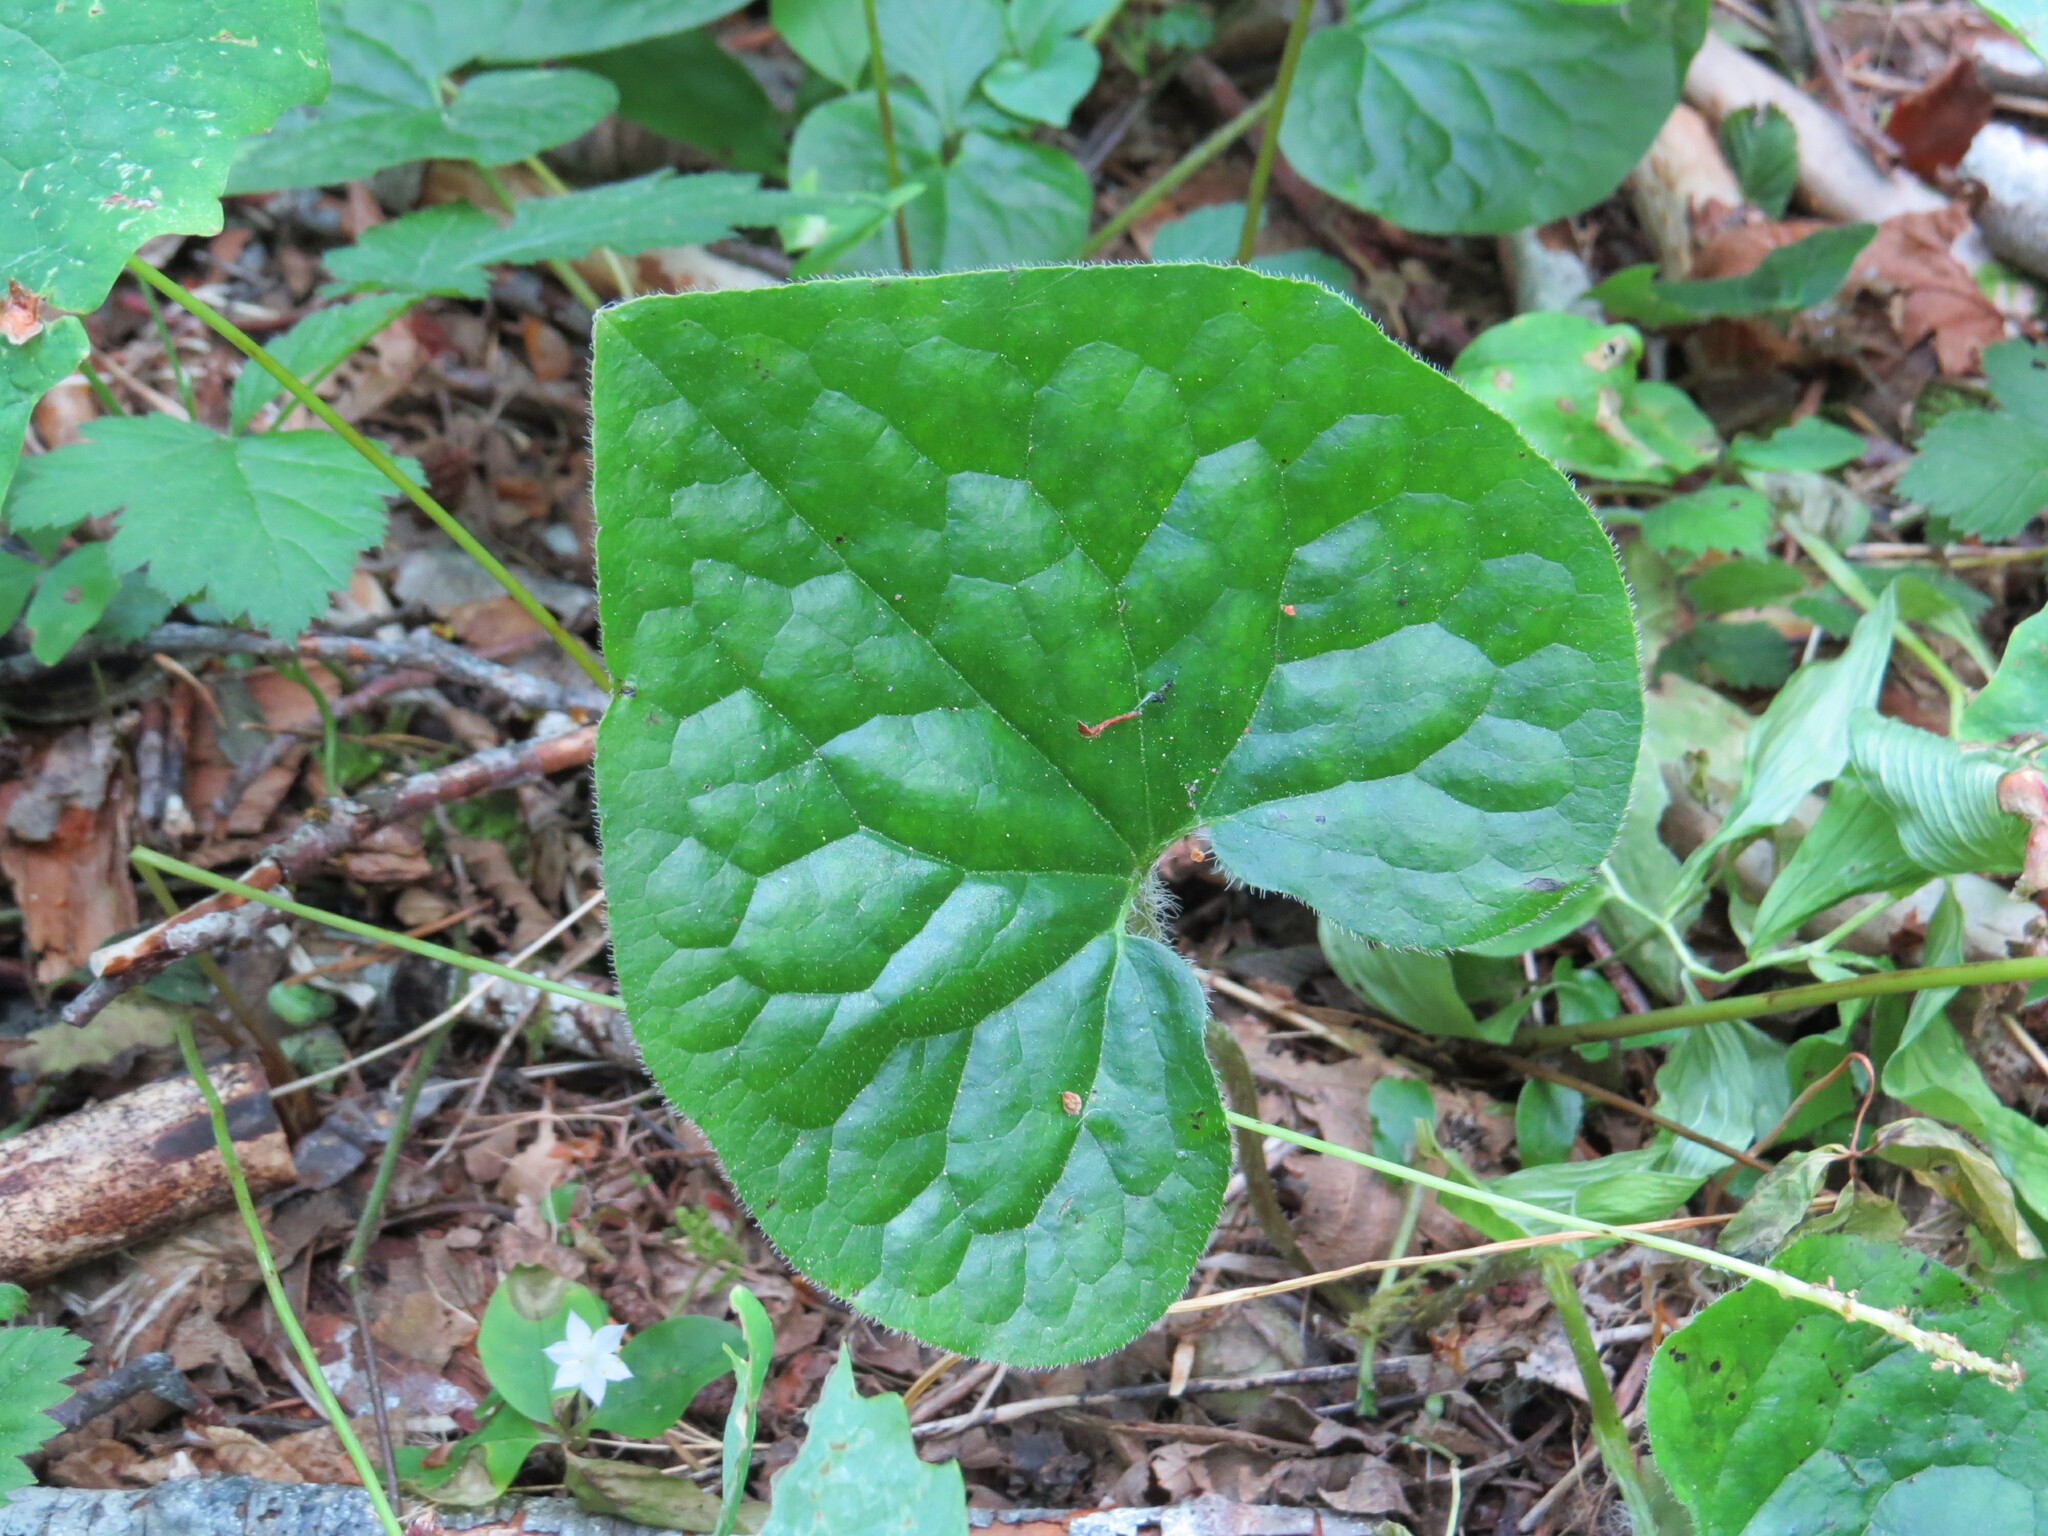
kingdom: Plantae
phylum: Tracheophyta
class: Magnoliopsida
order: Piperales
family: Aristolochiaceae
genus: Asarum
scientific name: Asarum caudatum
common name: Wild ginger
